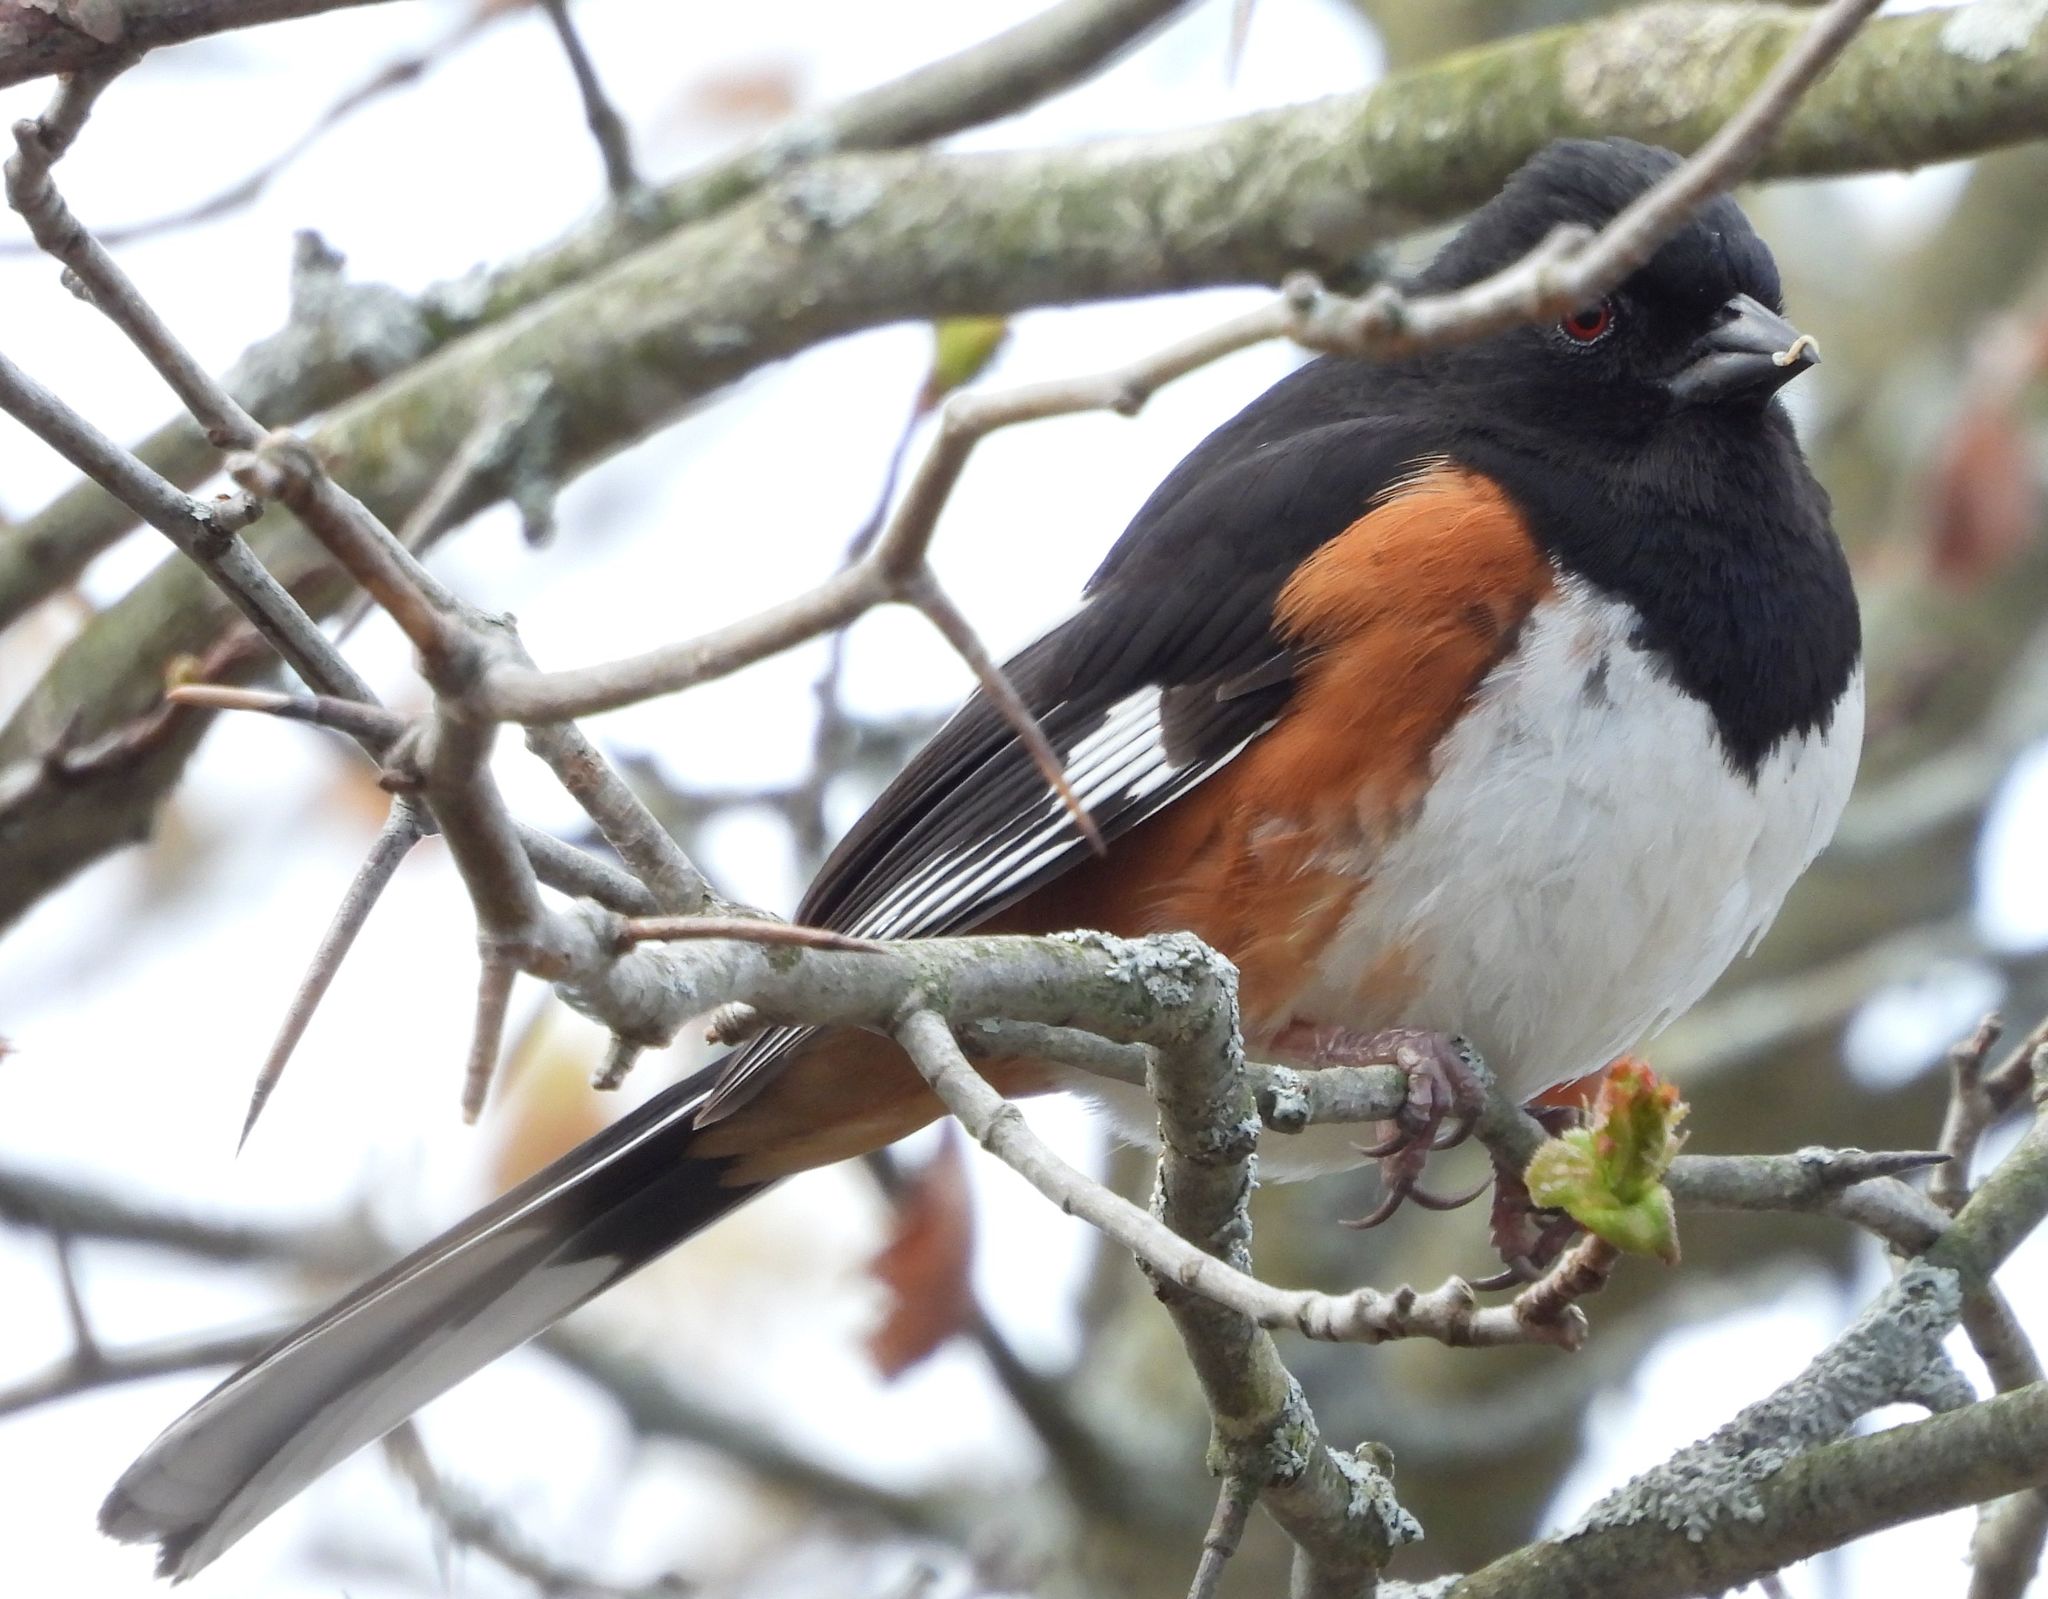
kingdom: Animalia
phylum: Chordata
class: Aves
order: Passeriformes
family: Passerellidae
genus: Pipilo
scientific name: Pipilo erythrophthalmus
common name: Eastern towhee
